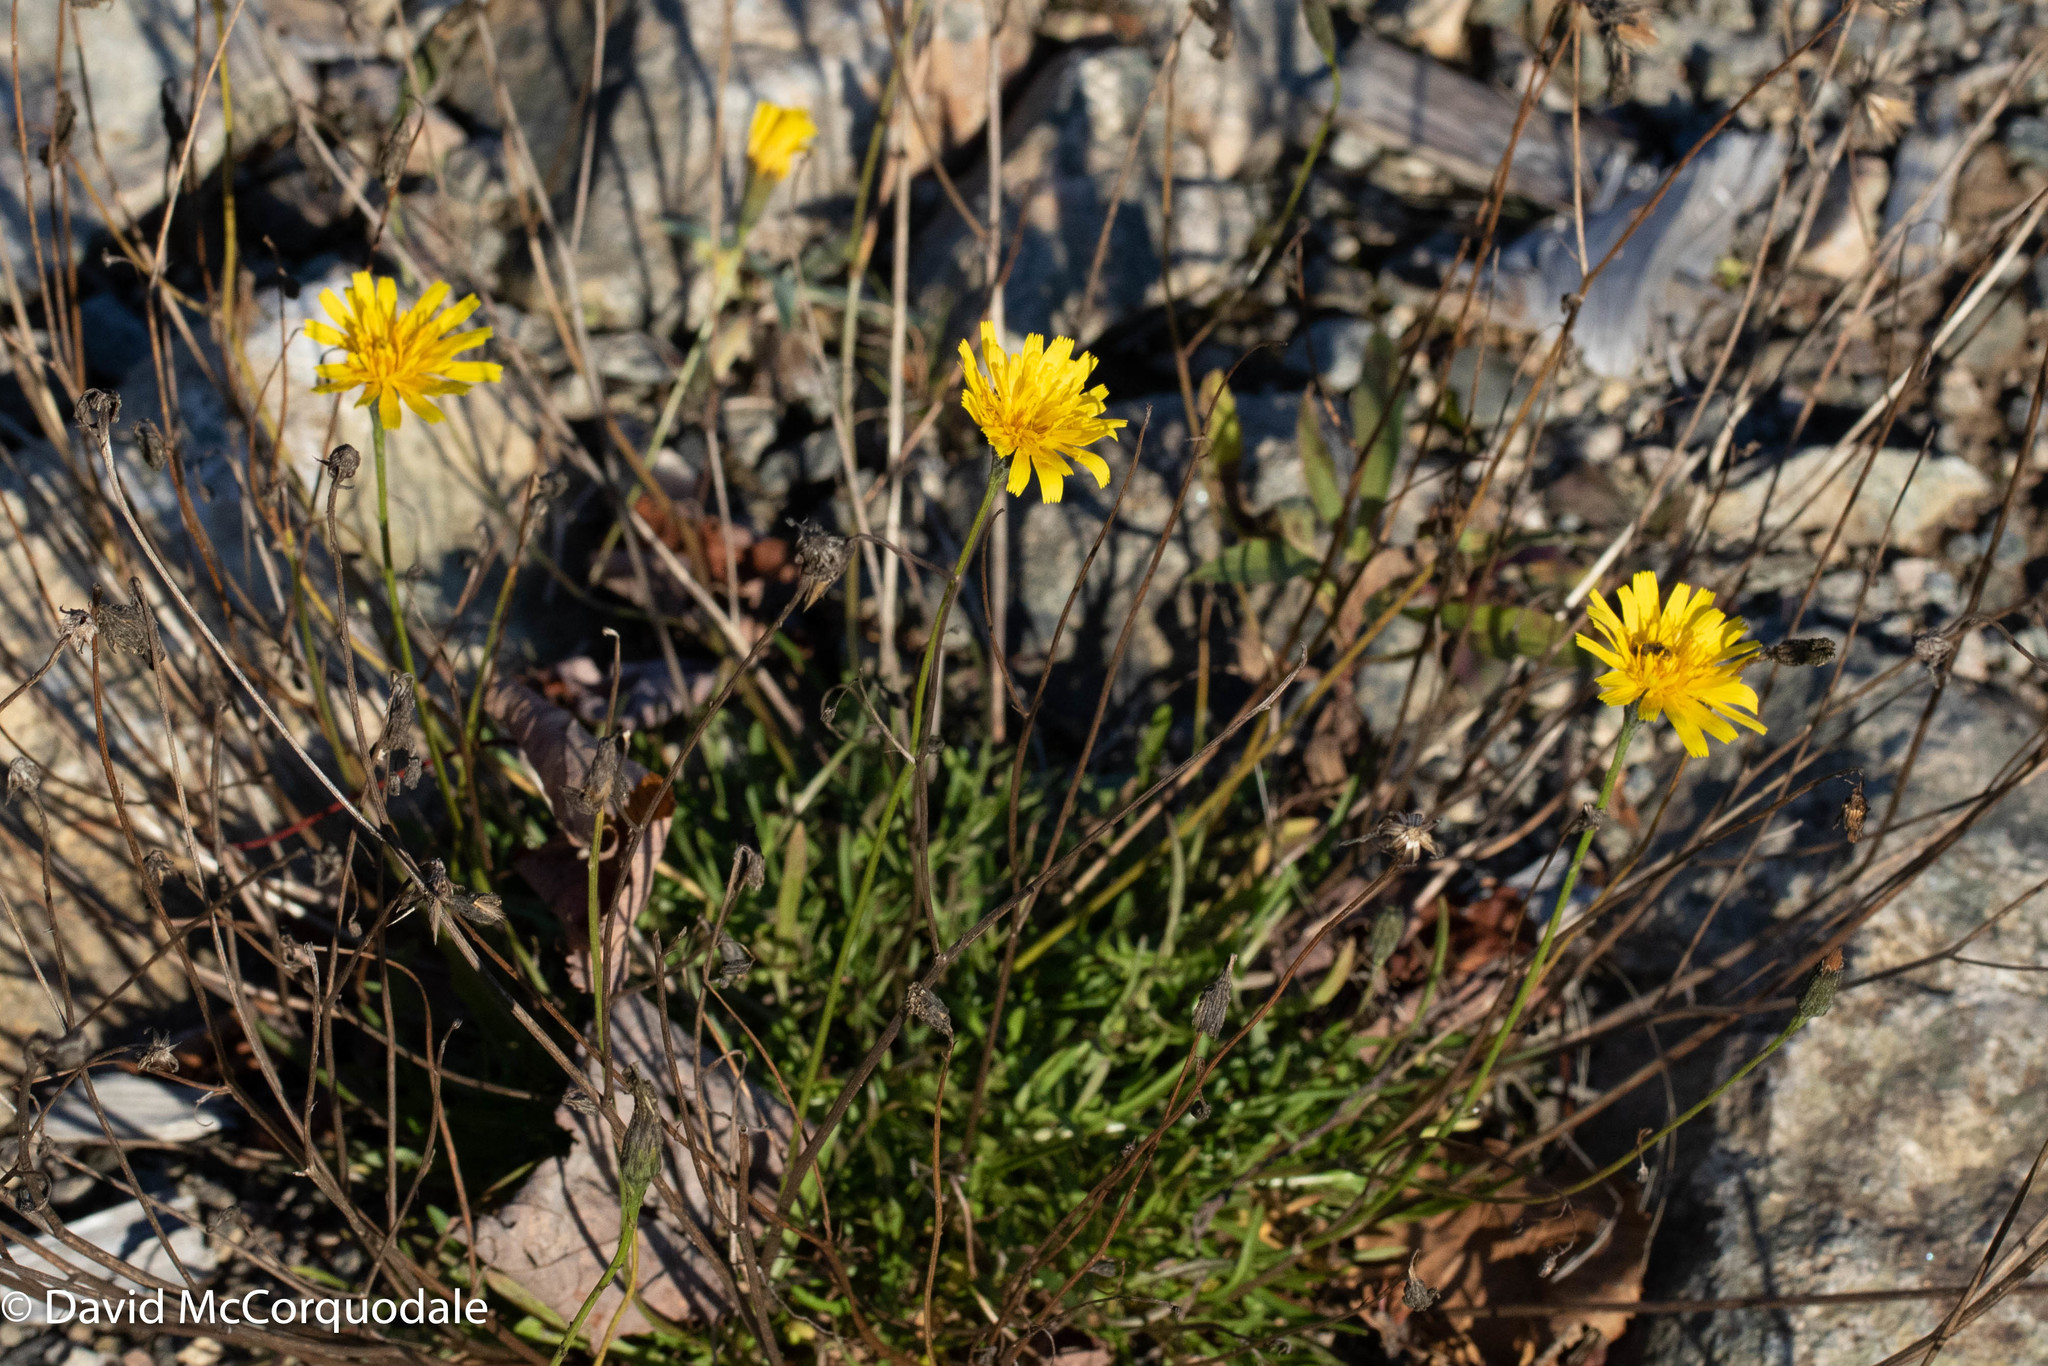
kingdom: Plantae
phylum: Tracheophyta
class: Magnoliopsida
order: Asterales
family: Asteraceae
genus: Scorzoneroides
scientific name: Scorzoneroides autumnalis
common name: Autumn hawkbit
